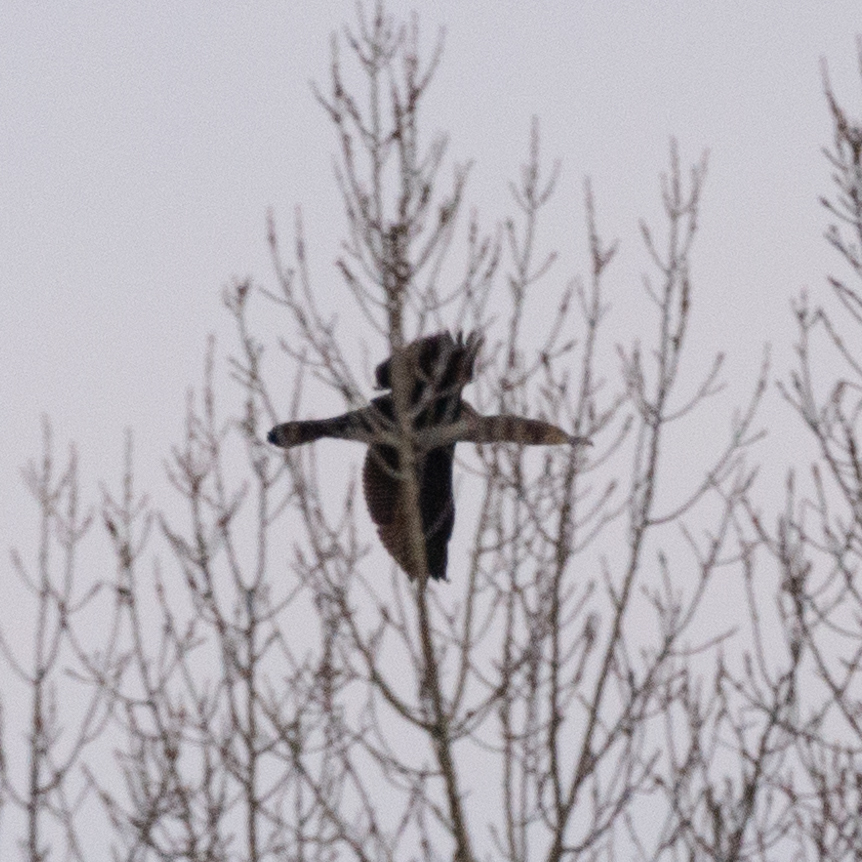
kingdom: Animalia
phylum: Chordata
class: Aves
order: Suliformes
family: Phalacrocoracidae
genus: Phalacrocorax
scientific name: Phalacrocorax carbo
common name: Great cormorant
